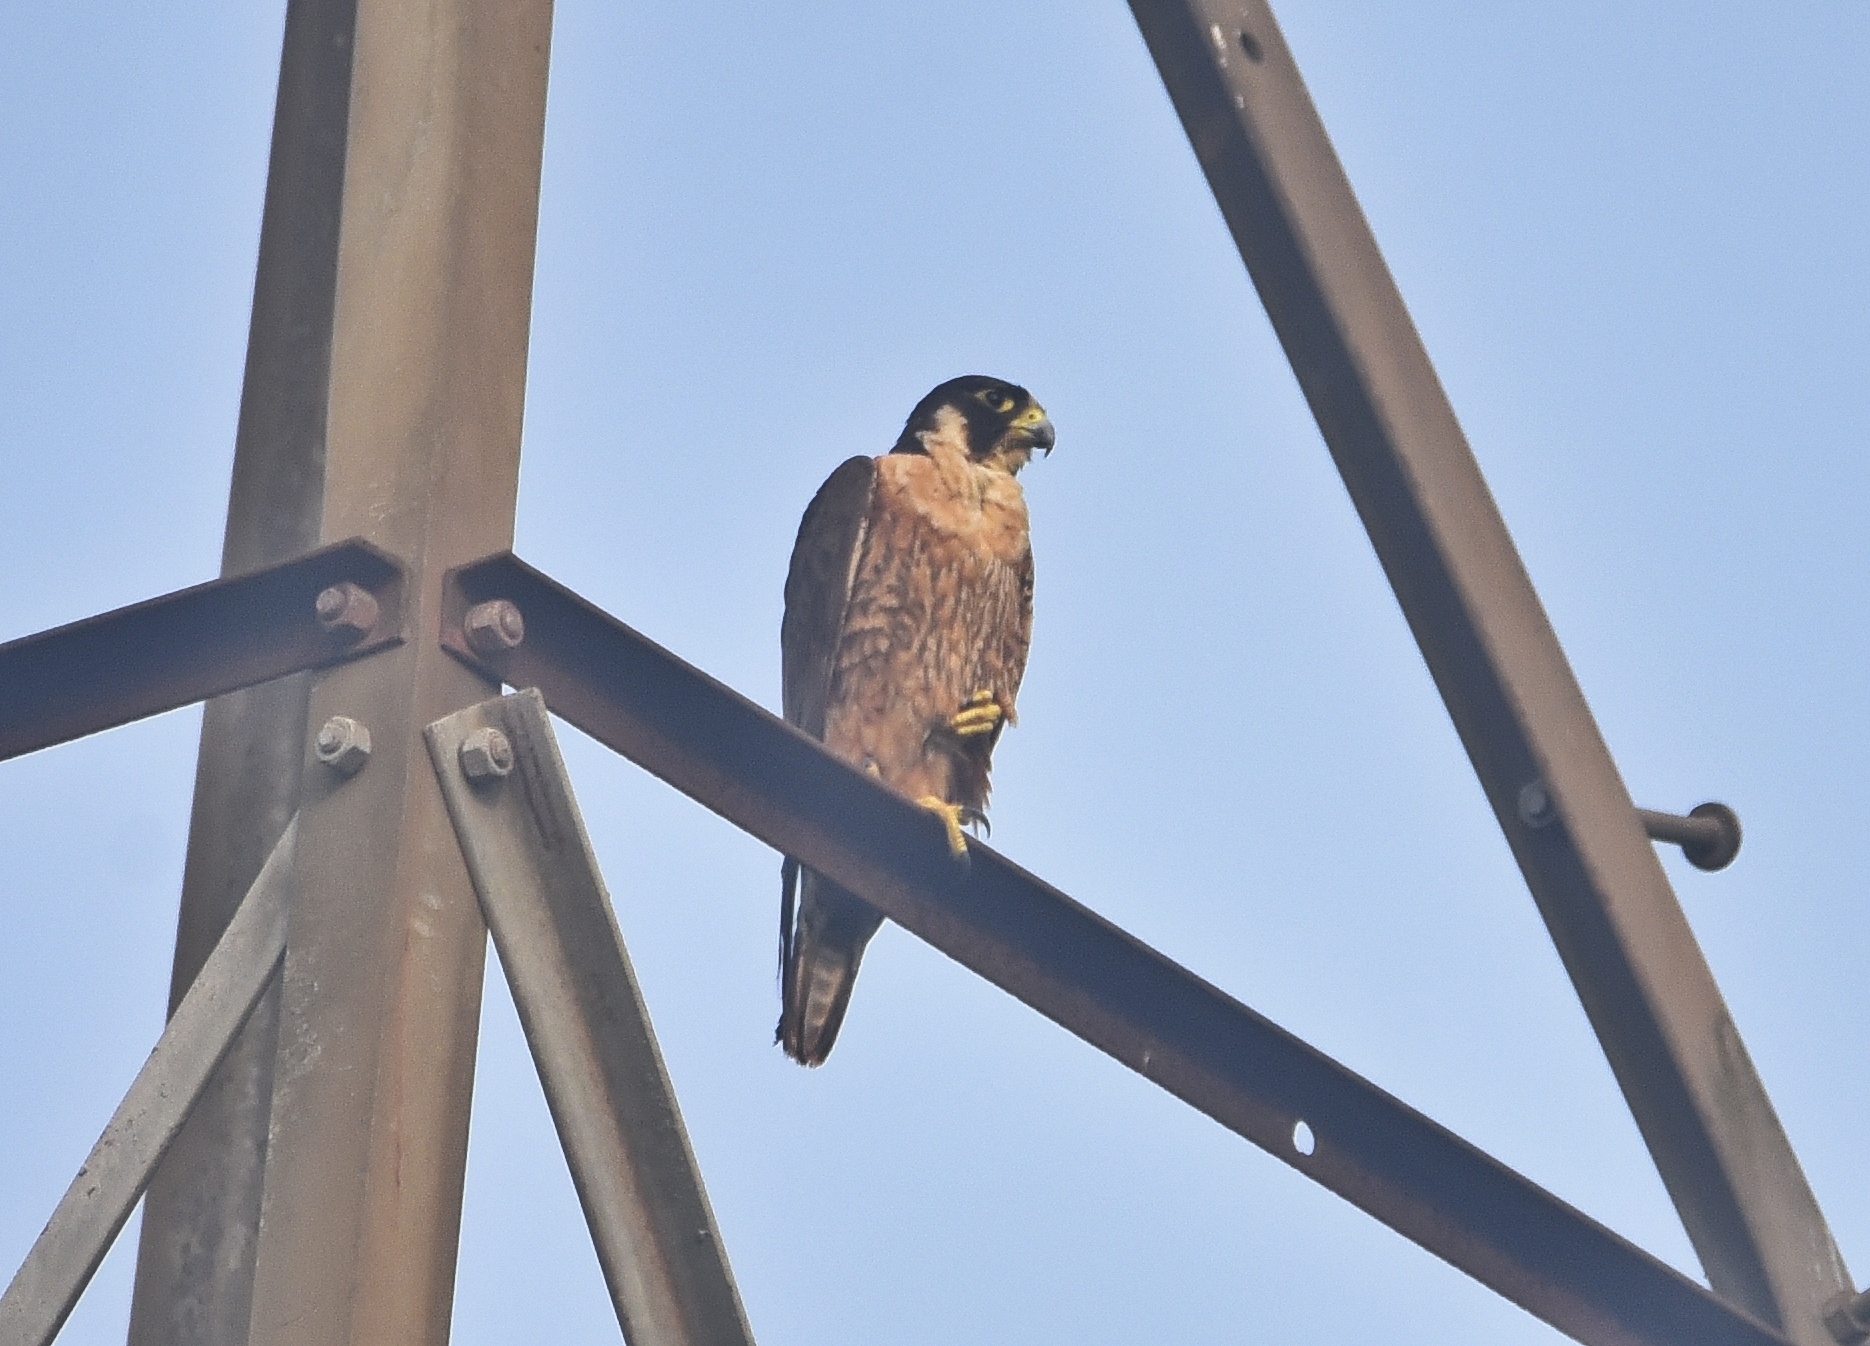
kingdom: Animalia
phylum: Chordata
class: Aves
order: Falconiformes
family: Falconidae
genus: Falco
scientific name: Falco peregrinus
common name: Peregrine falcon
